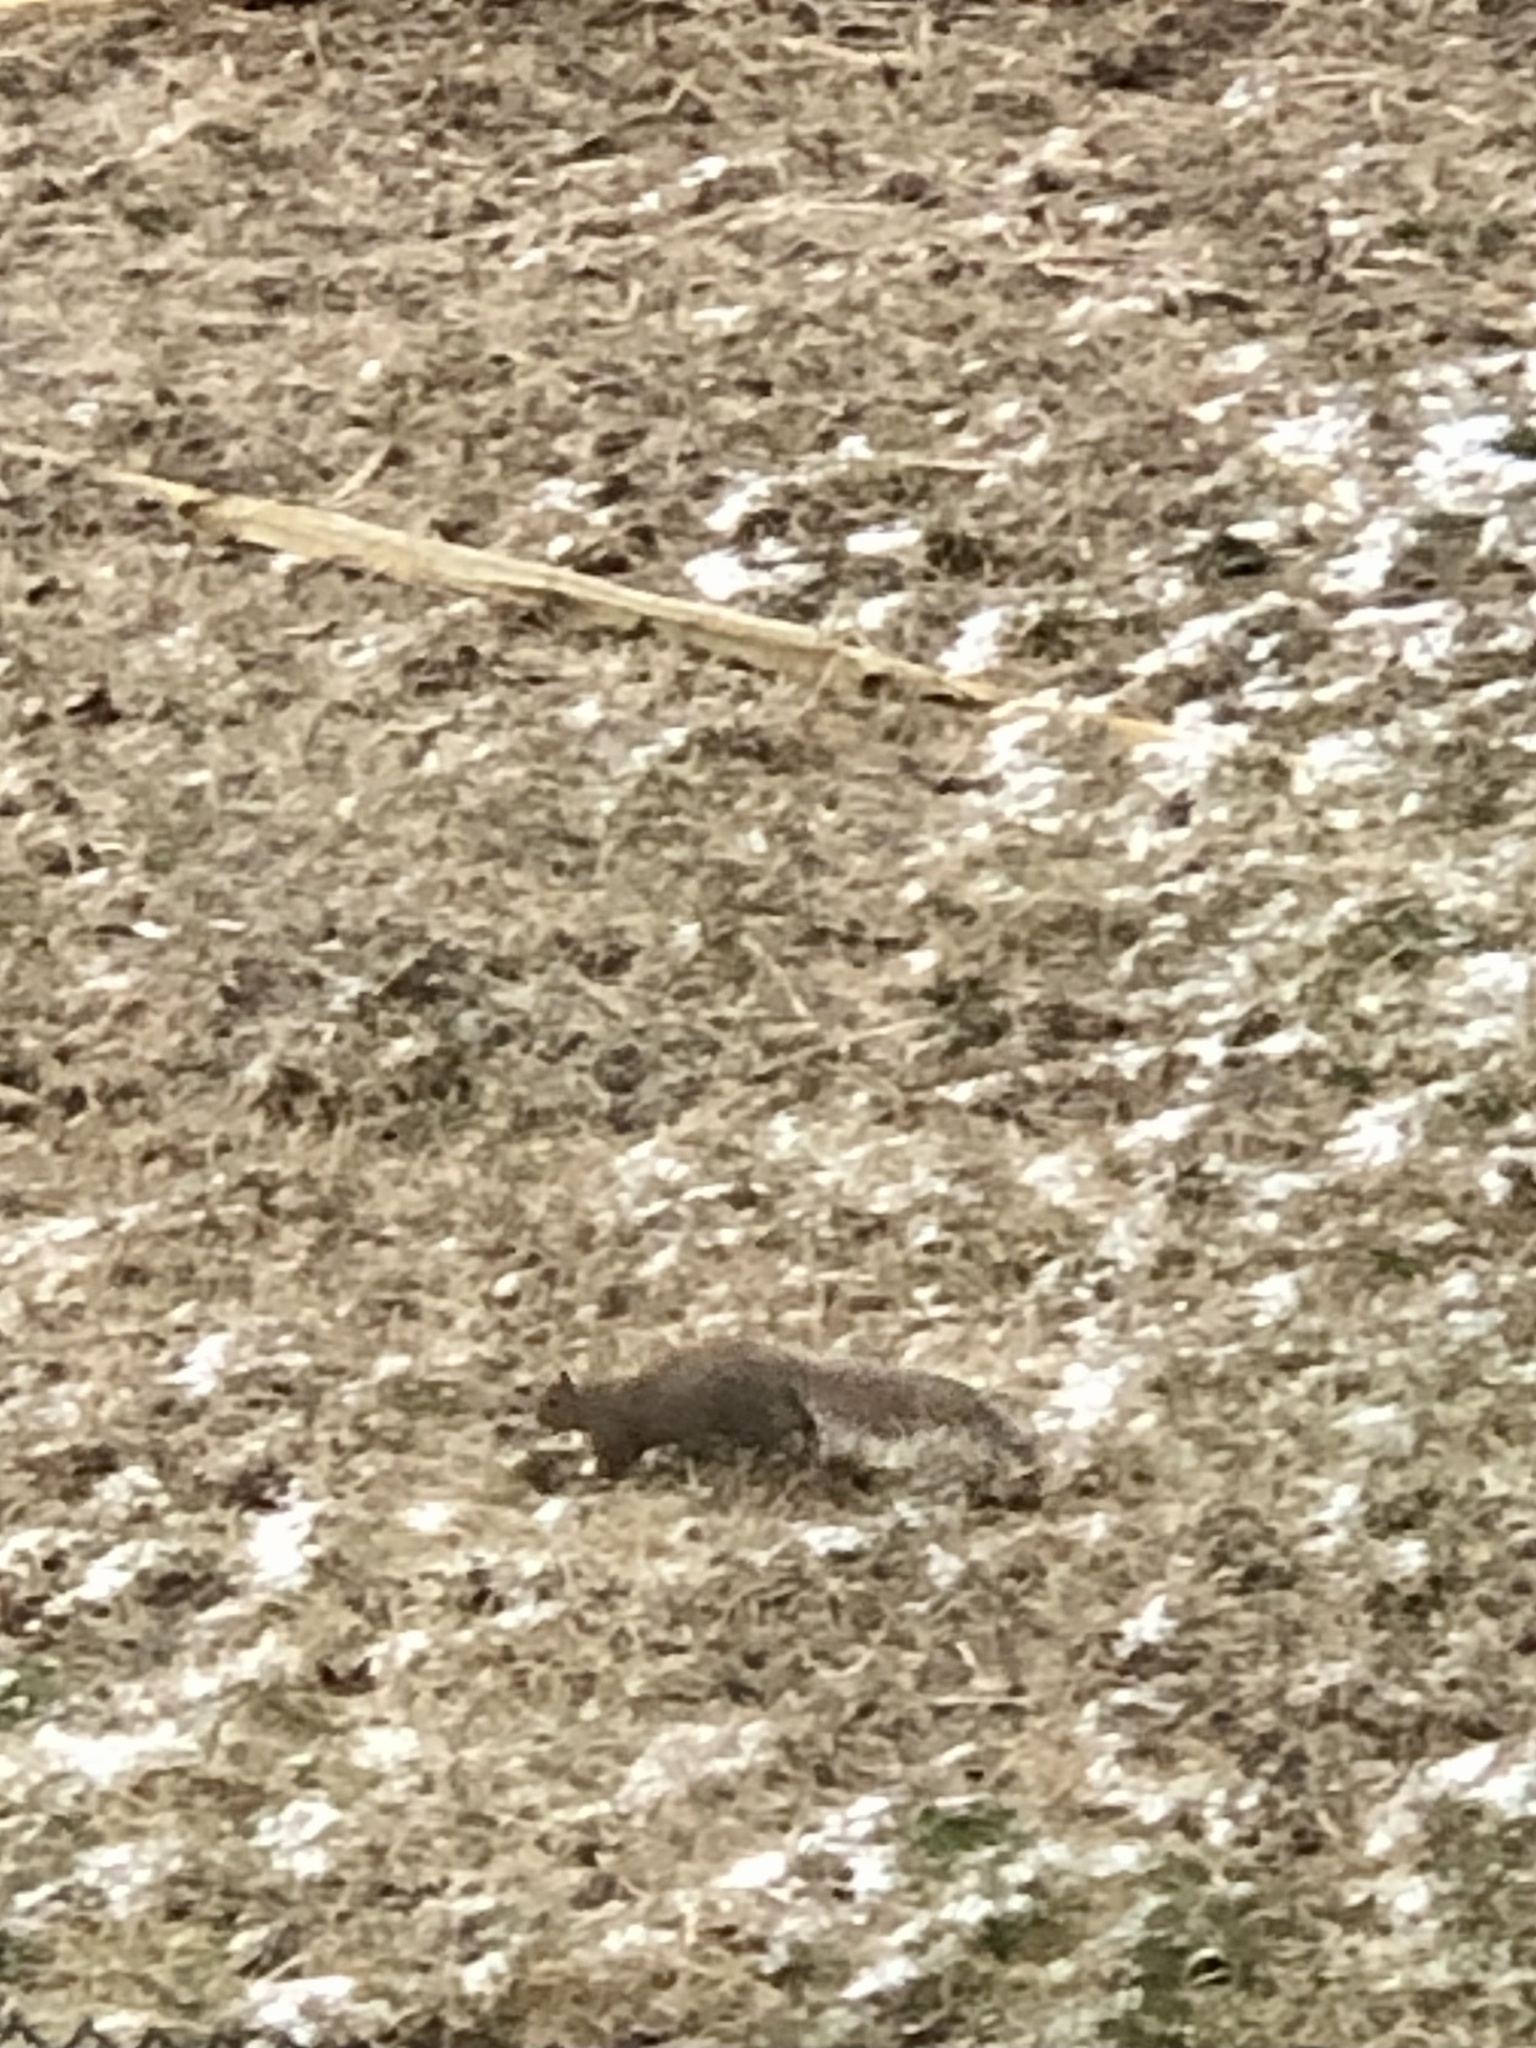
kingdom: Animalia
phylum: Chordata
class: Mammalia
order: Rodentia
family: Sciuridae
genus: Sciurus
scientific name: Sciurus carolinensis
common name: Eastern gray squirrel
